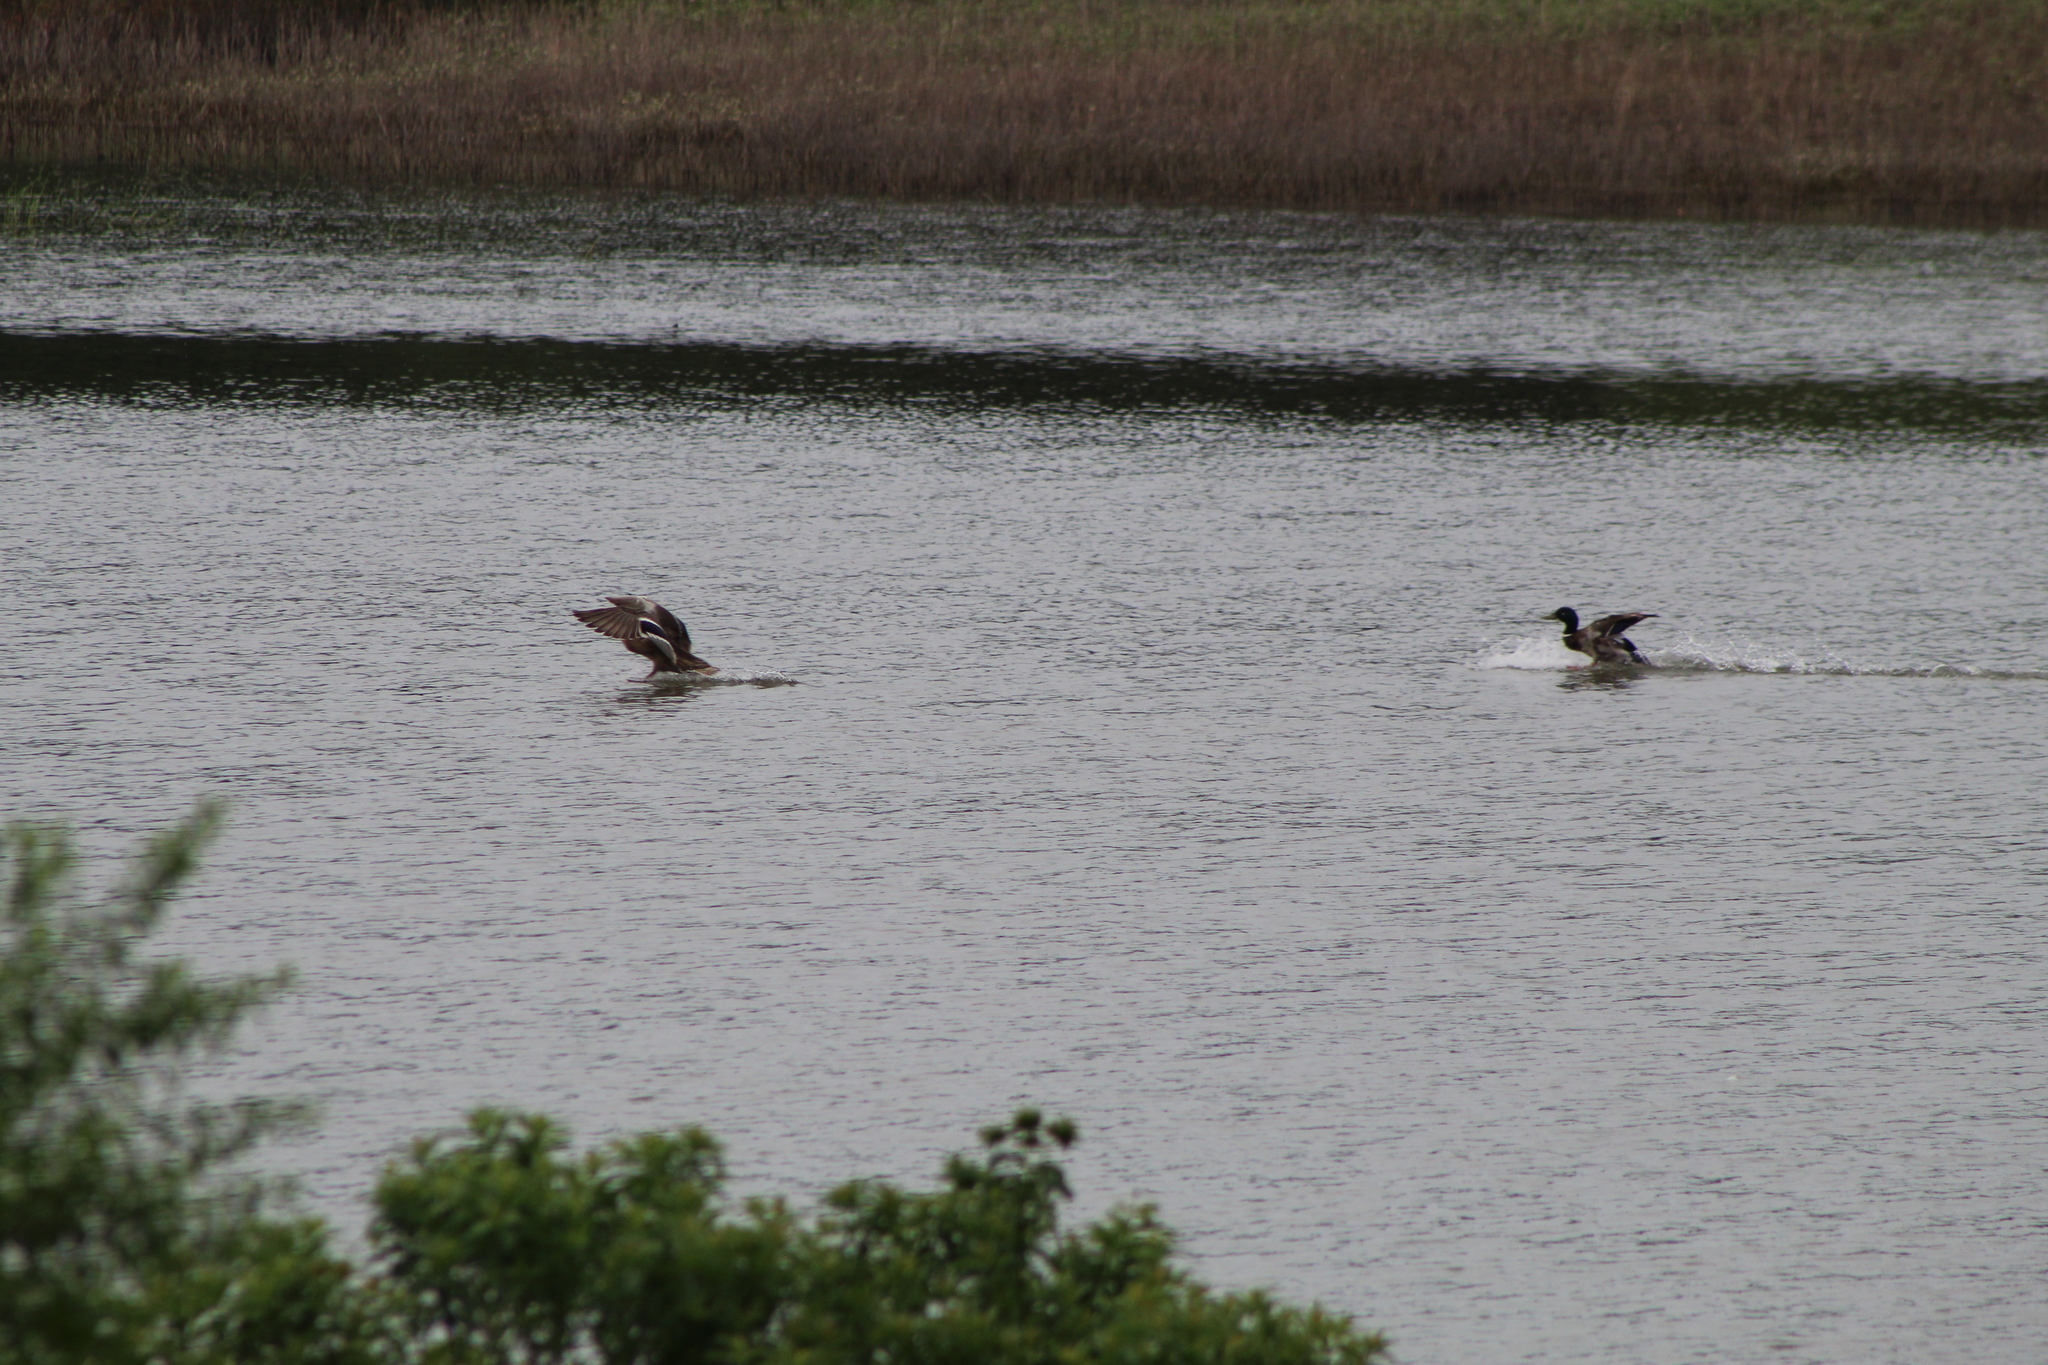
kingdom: Animalia
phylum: Chordata
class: Aves
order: Anseriformes
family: Anatidae
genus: Anas
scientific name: Anas platyrhynchos
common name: Mallard
